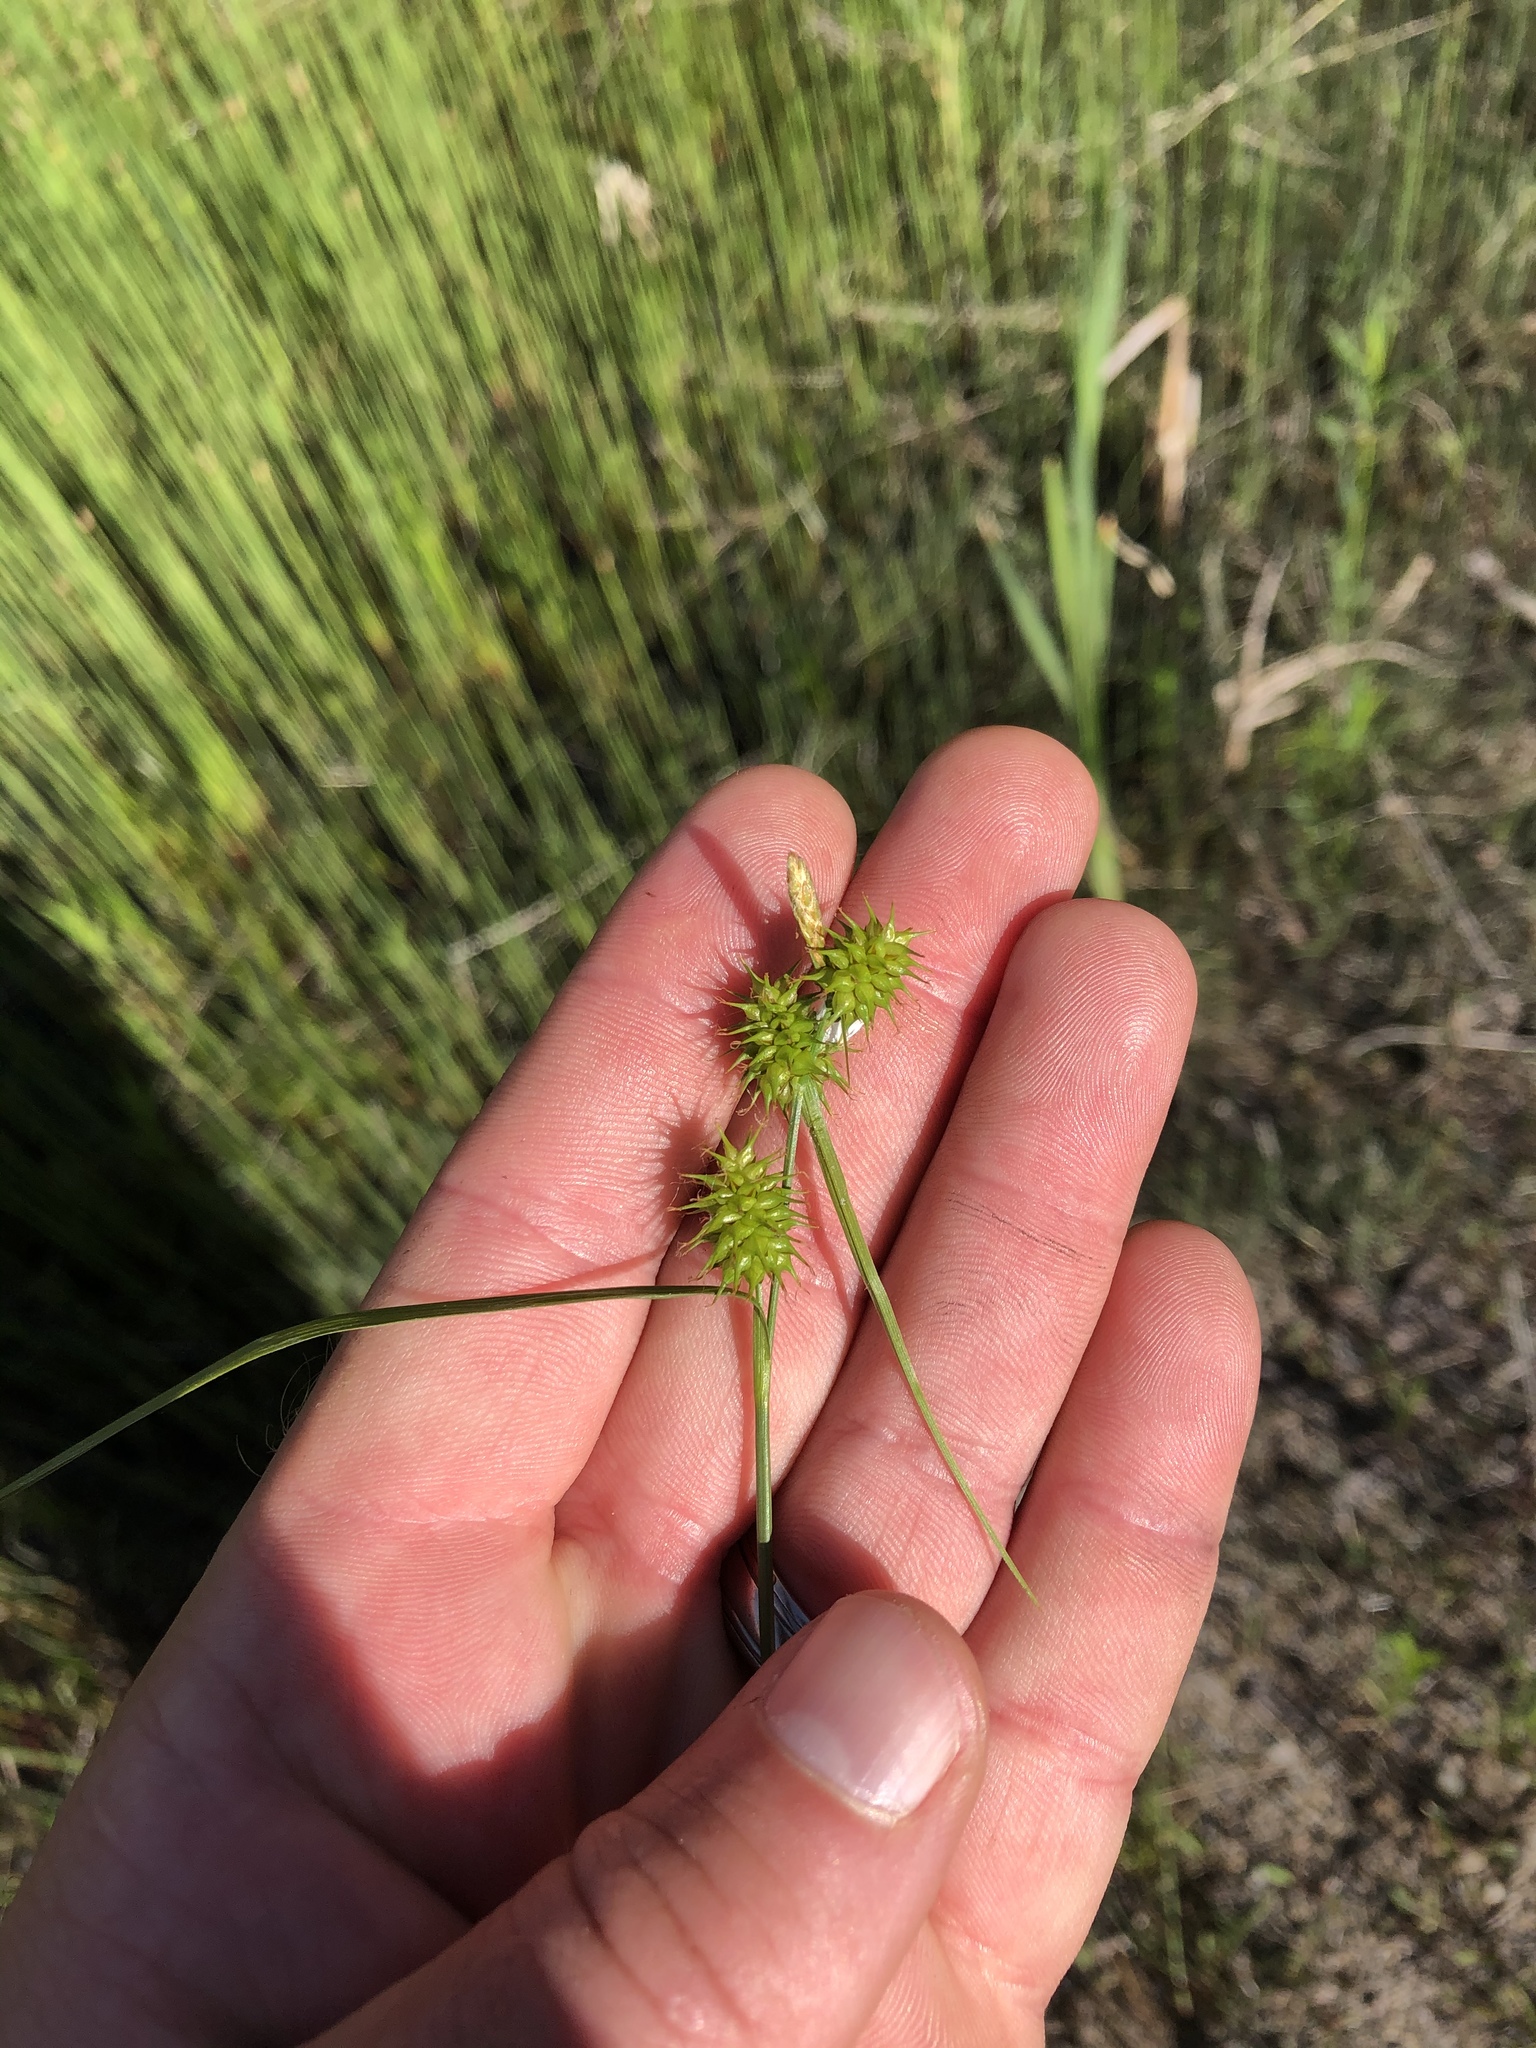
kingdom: Plantae
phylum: Tracheophyta
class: Liliopsida
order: Poales
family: Cyperaceae
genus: Carex
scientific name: Carex flava
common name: Large yellow-sedge
